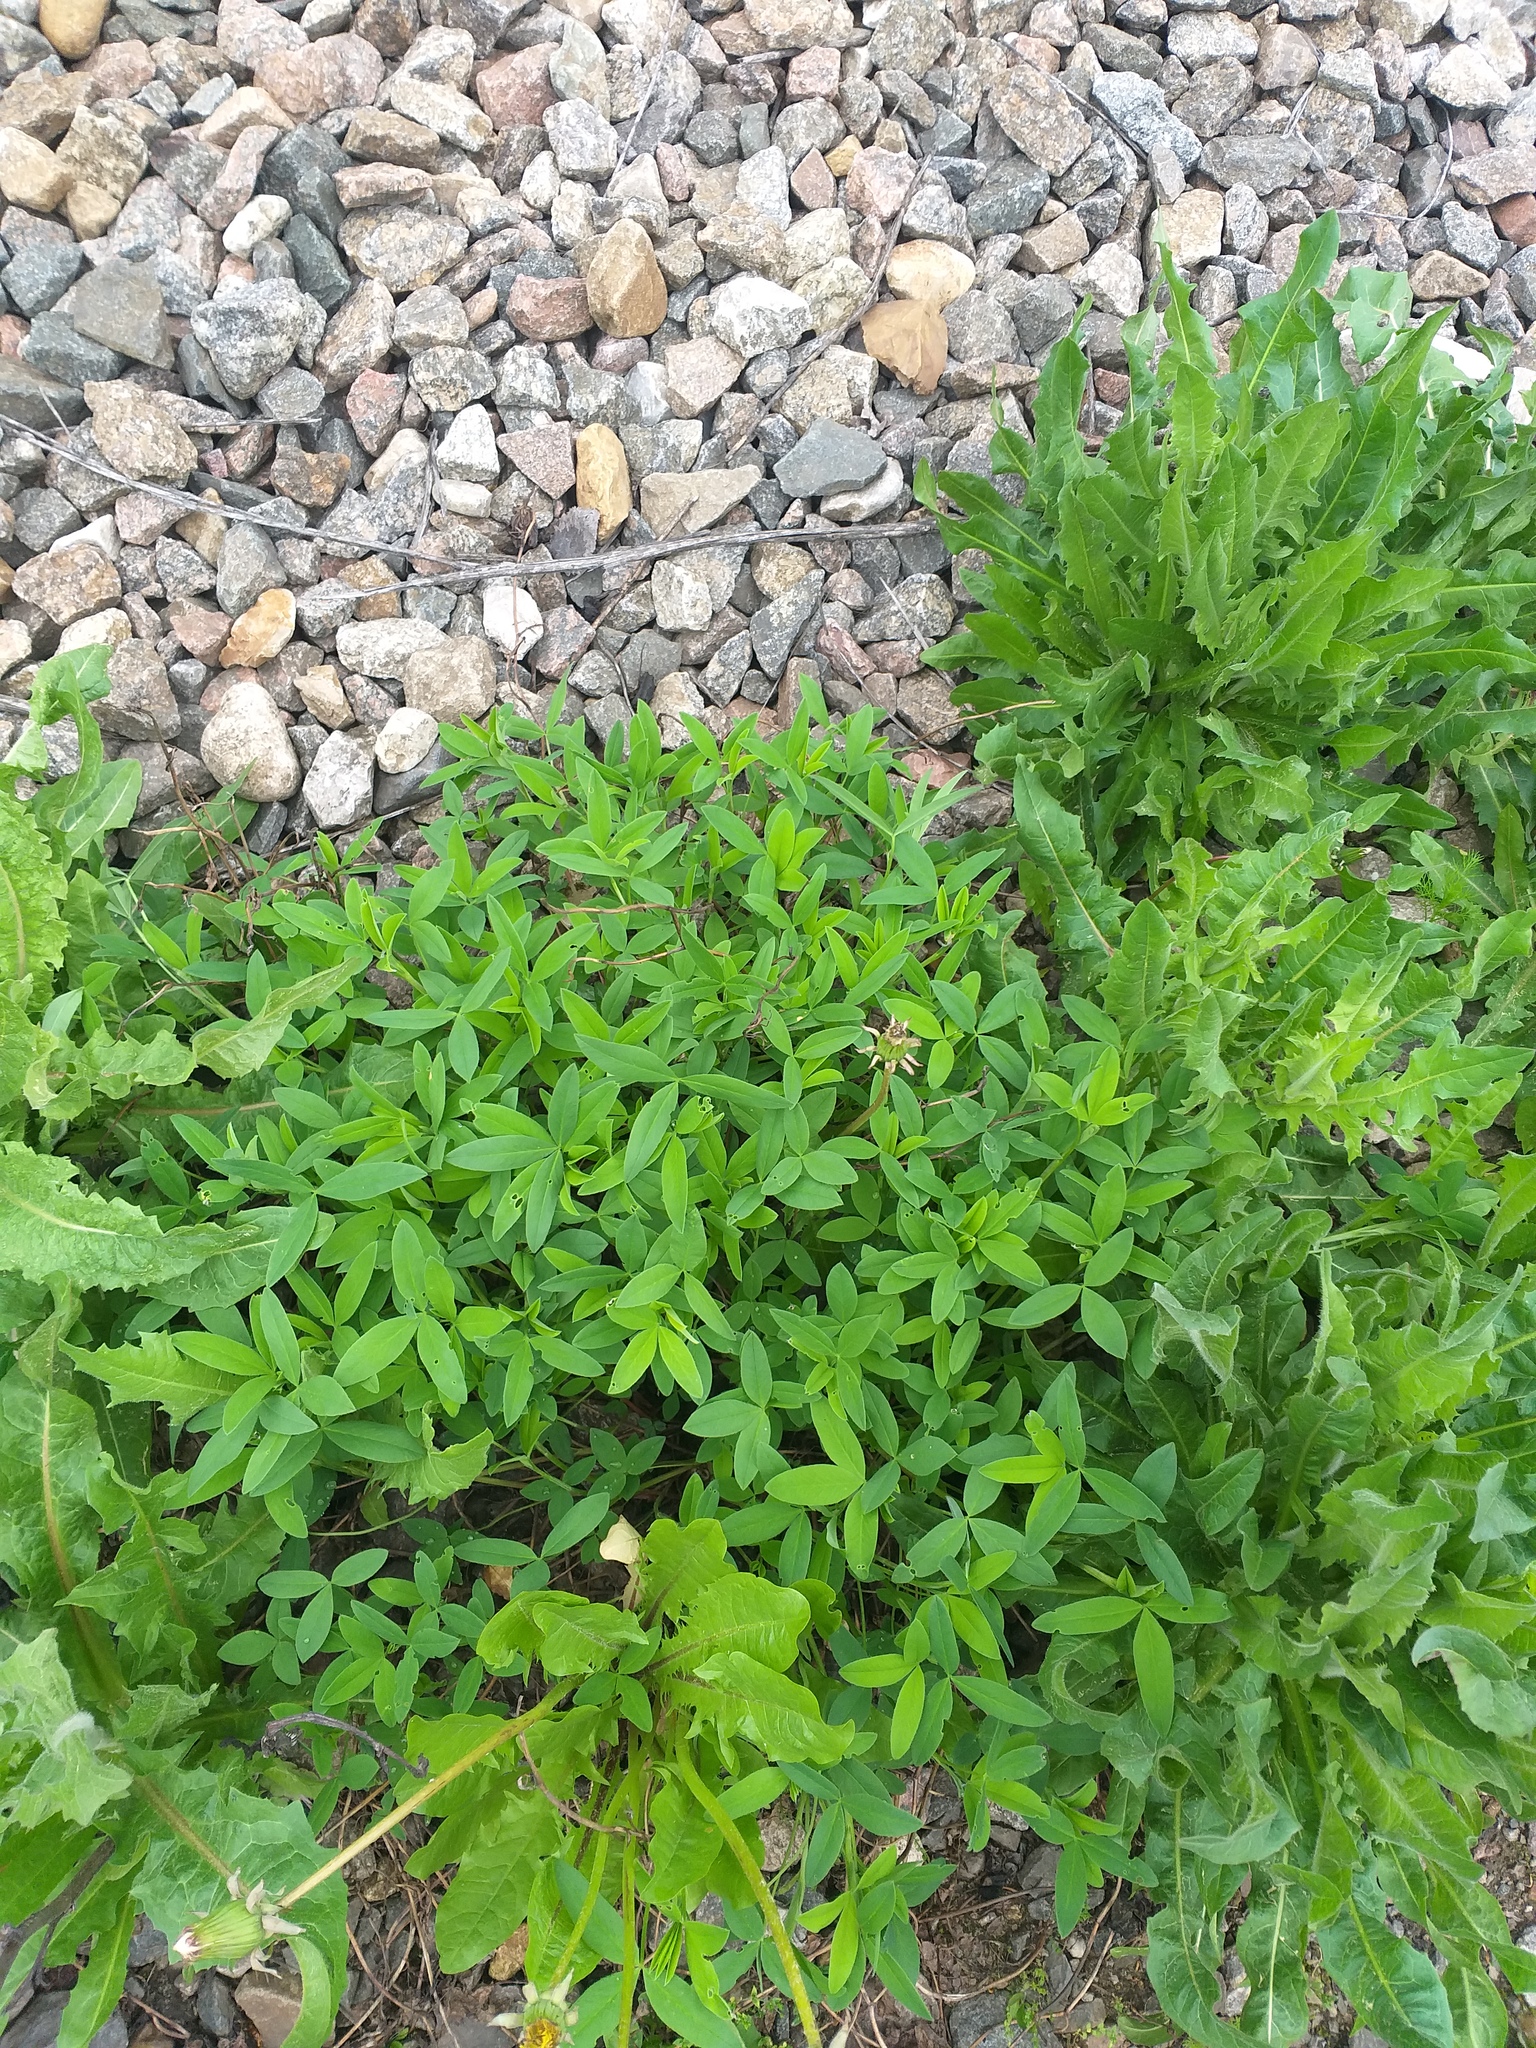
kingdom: Plantae
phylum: Tracheophyta
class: Magnoliopsida
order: Fabales
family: Fabaceae
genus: Trifolium
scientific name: Trifolium medium
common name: Zigzag clover
